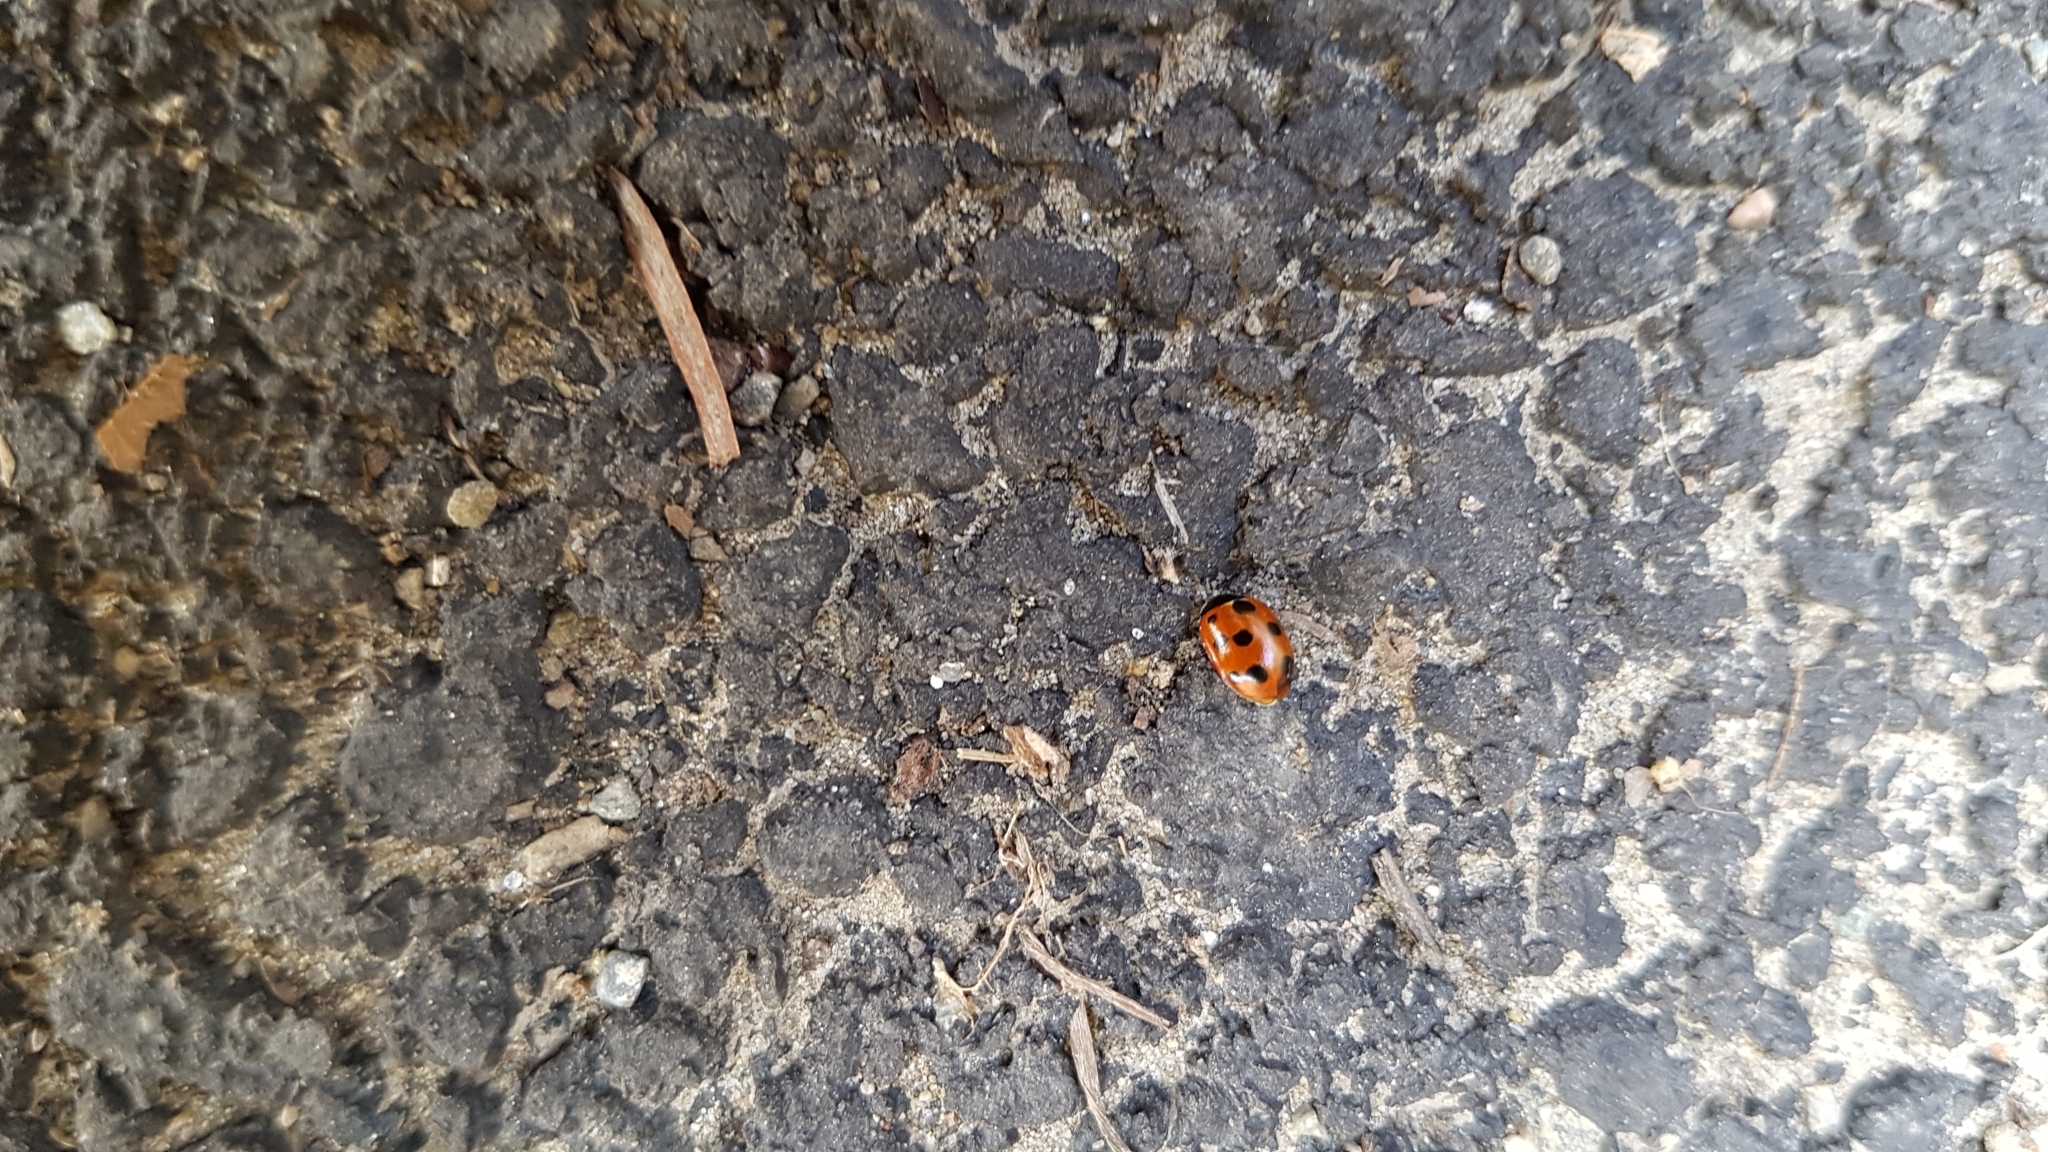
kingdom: Animalia
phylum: Arthropoda
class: Insecta
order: Coleoptera
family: Coccinellidae
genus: Coccinella
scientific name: Coccinella undecimpunctata
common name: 11-spot ladybird
